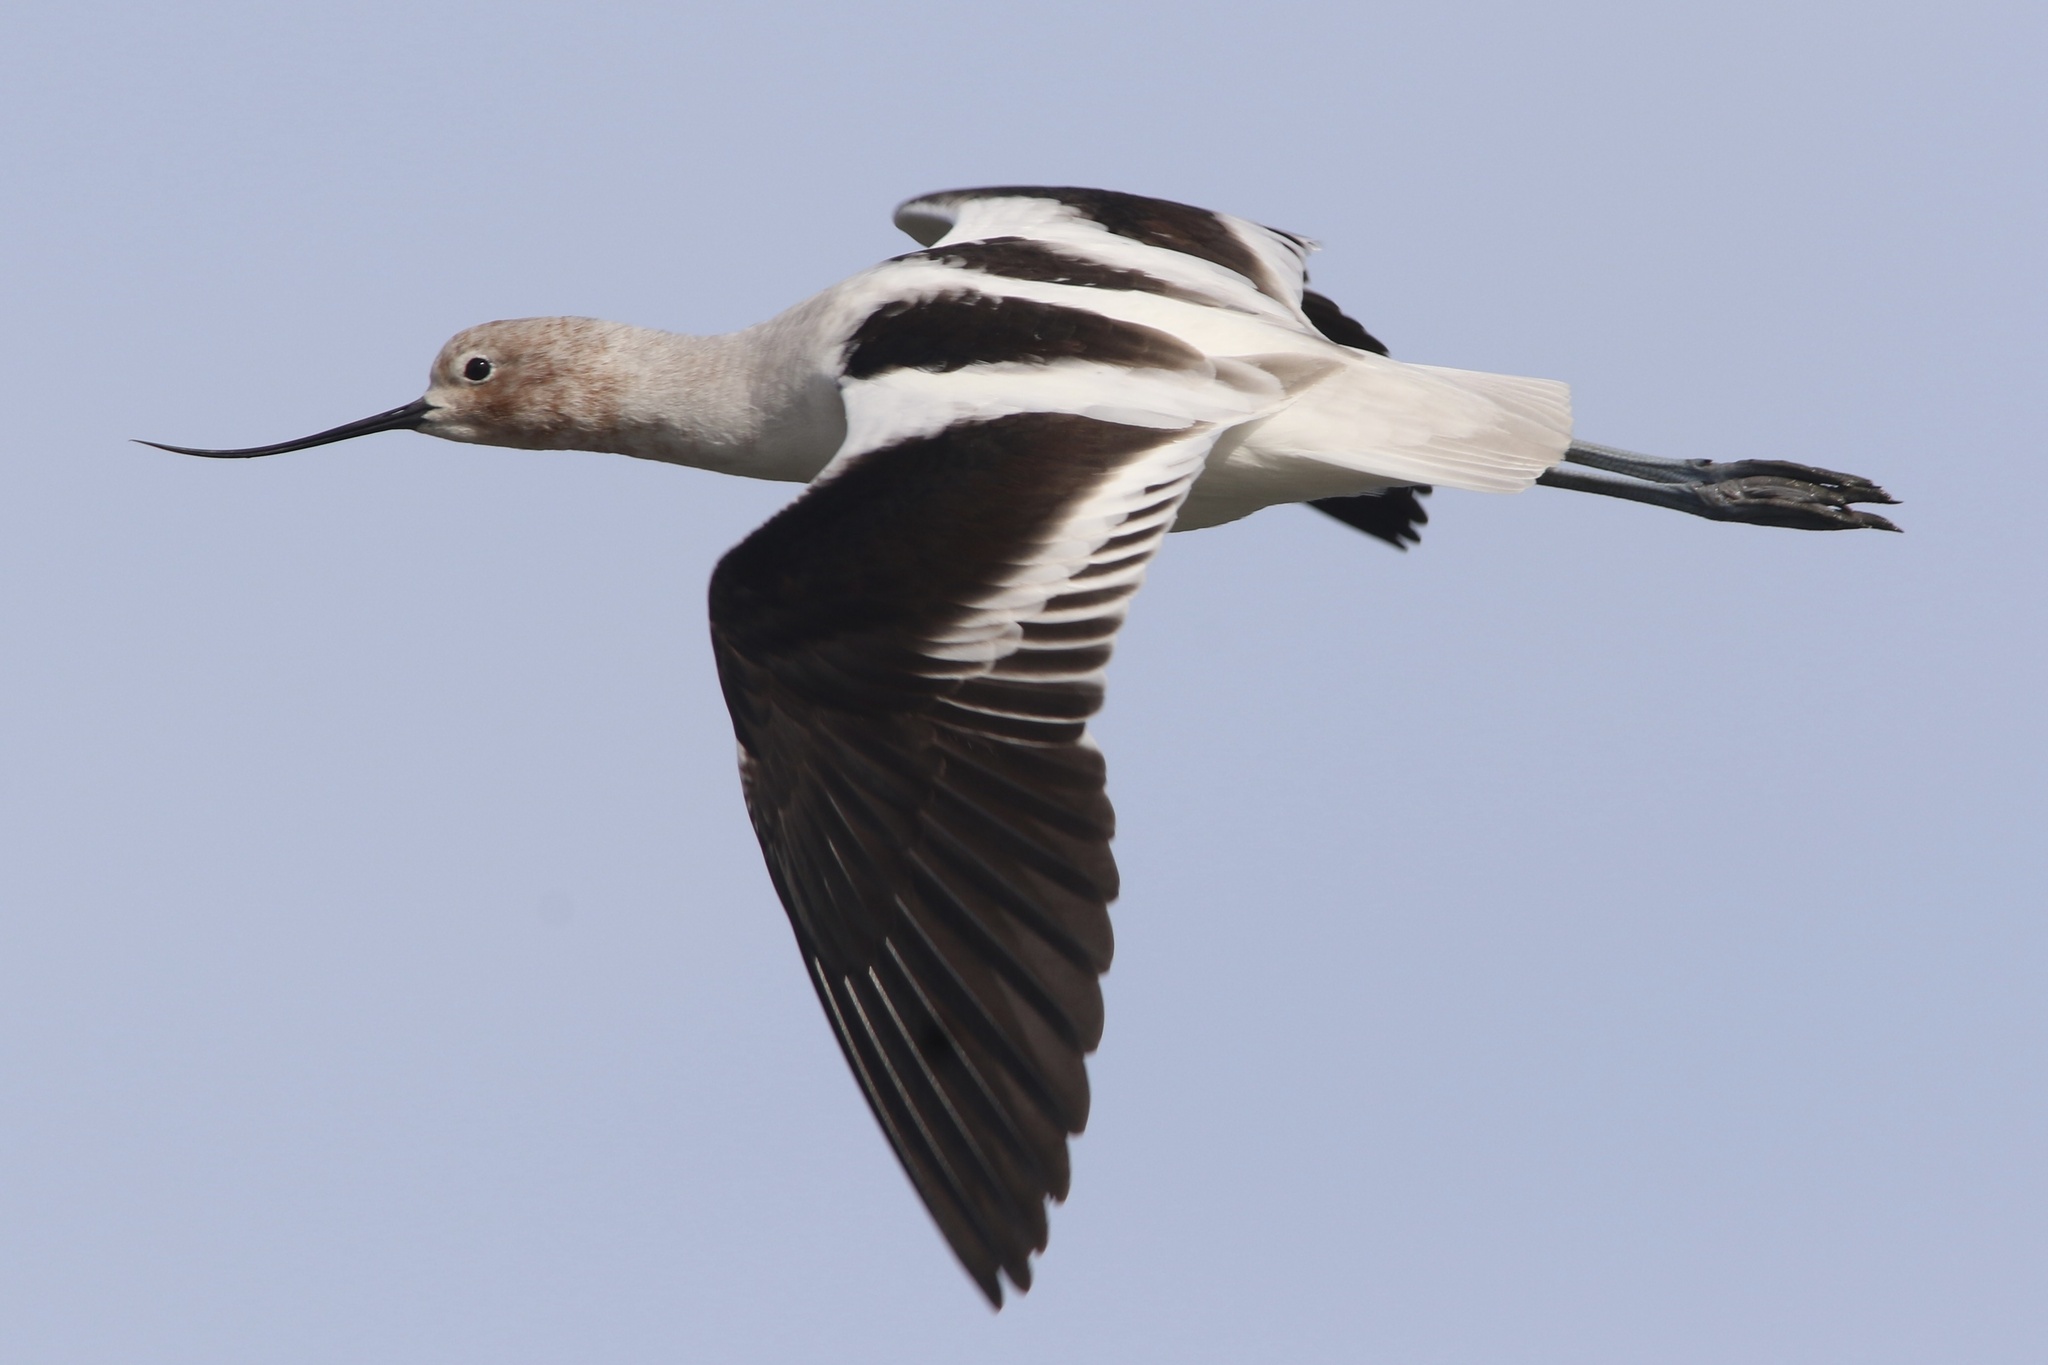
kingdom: Animalia
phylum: Chordata
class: Aves
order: Charadriiformes
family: Recurvirostridae
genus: Recurvirostra
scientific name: Recurvirostra americana
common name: American avocet
